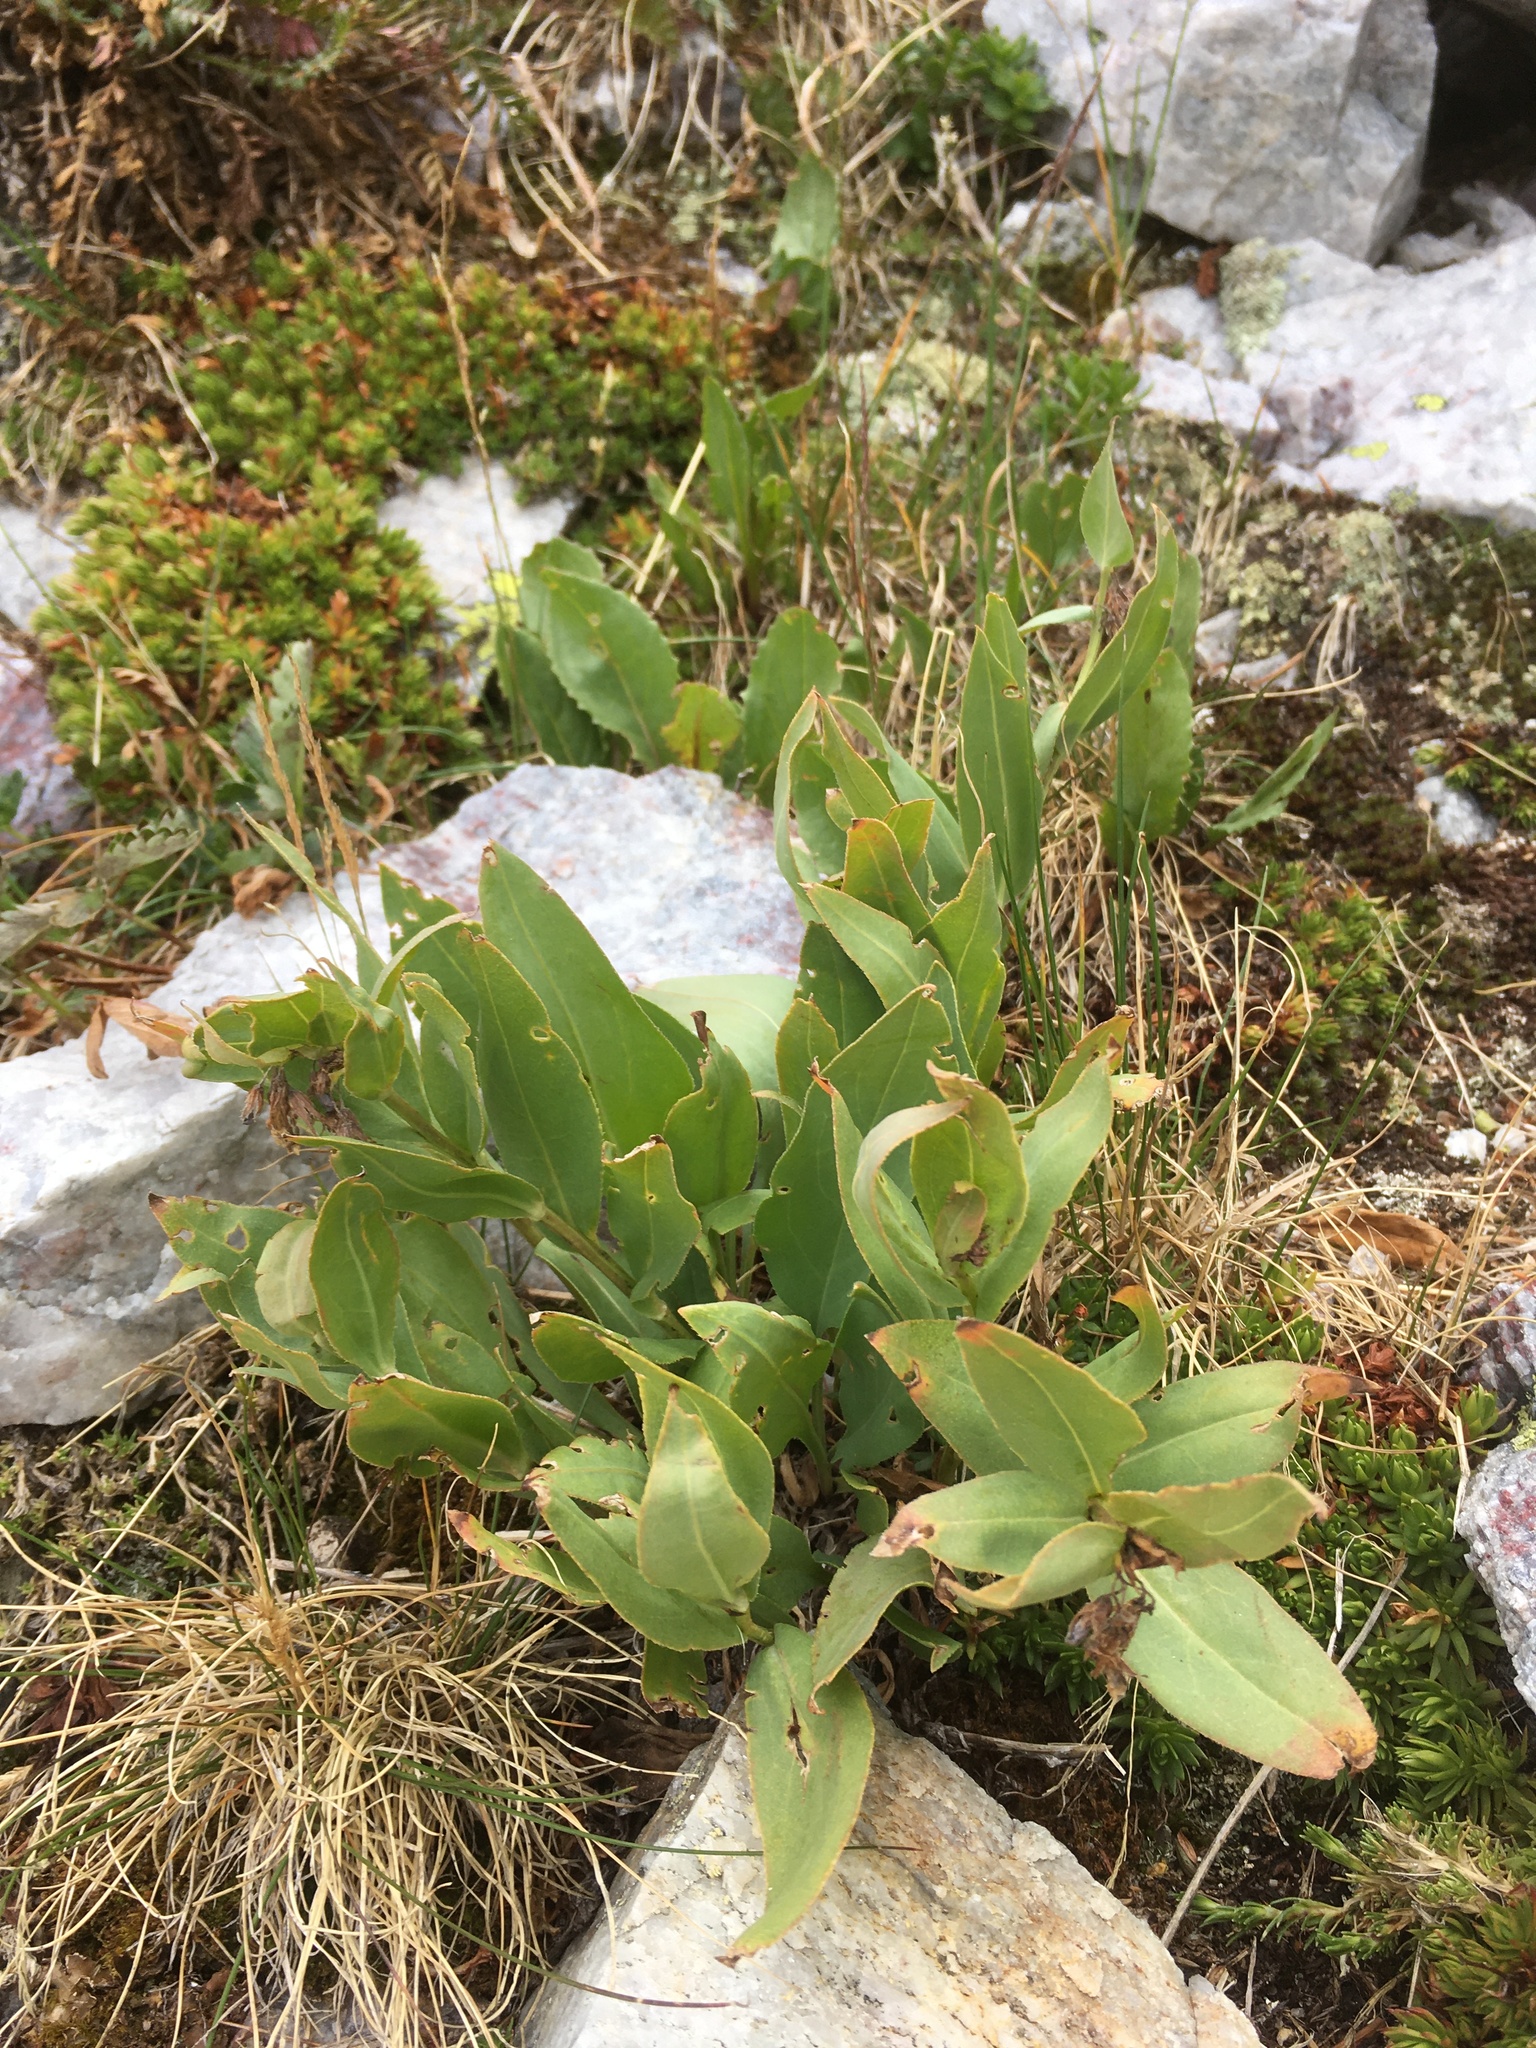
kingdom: Plantae
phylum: Tracheophyta
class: Magnoliopsida
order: Boraginales
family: Boraginaceae
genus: Mertensia
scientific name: Mertensia ovata
